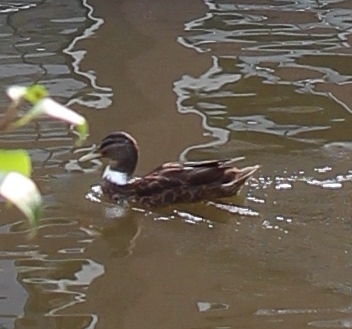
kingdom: Animalia
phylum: Chordata
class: Aves
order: Anseriformes
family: Anatidae
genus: Anas
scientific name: Anas platyrhynchos
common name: Mallard
